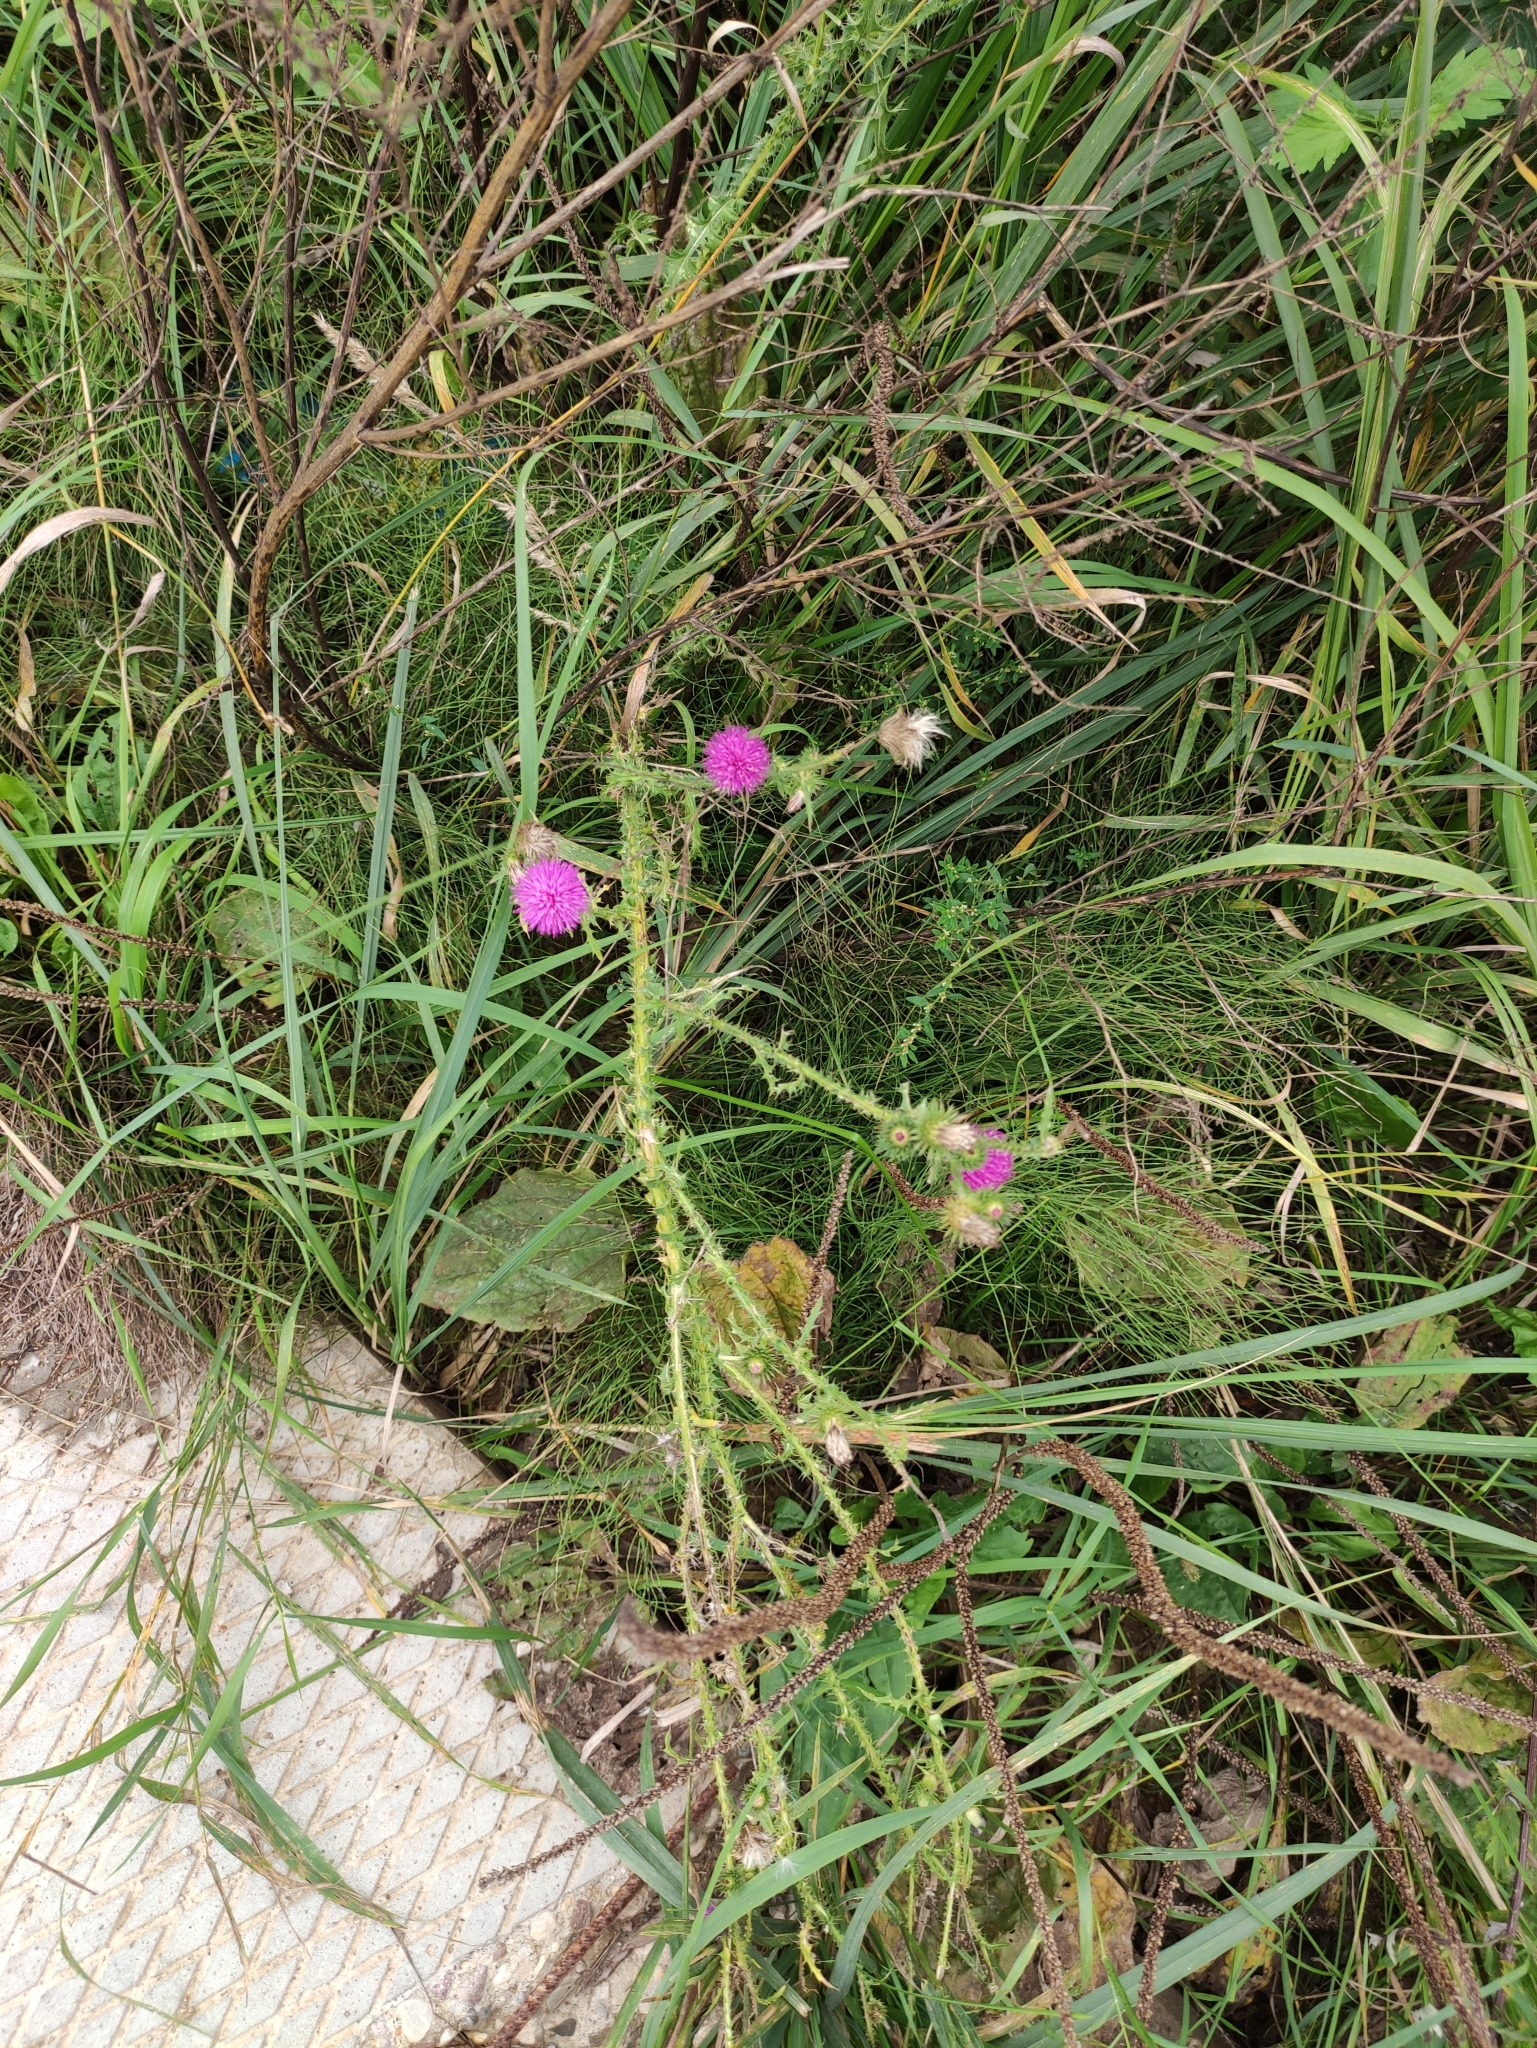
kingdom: Plantae
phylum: Tracheophyta
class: Magnoliopsida
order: Asterales
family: Asteraceae
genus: Carduus
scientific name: Carduus acanthoides
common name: Plumeless thistle
